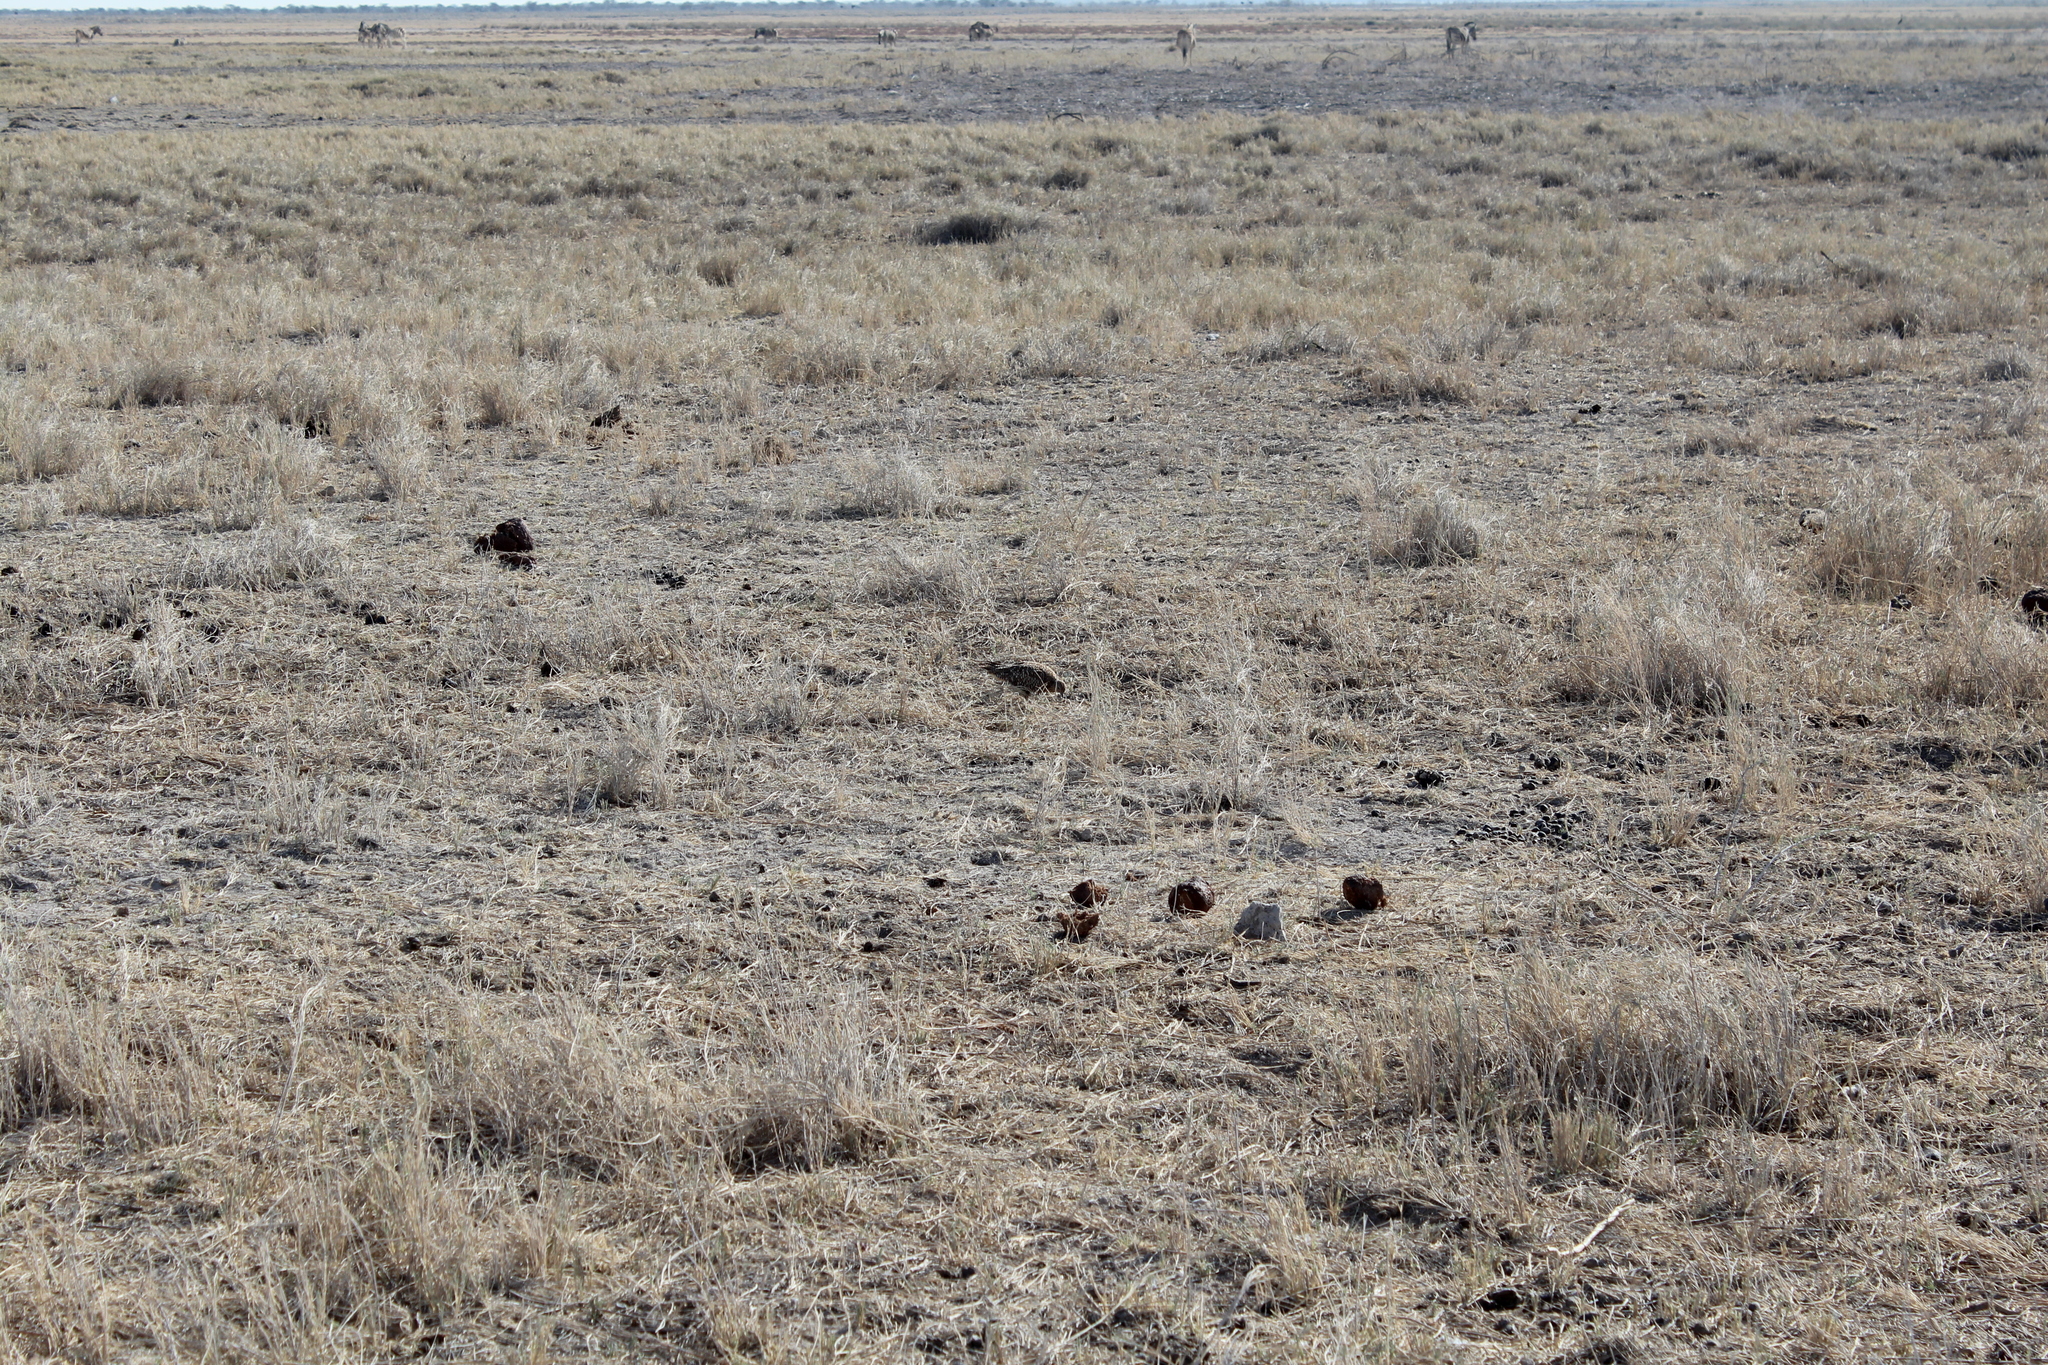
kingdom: Animalia
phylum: Chordata
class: Aves
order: Pteroclidiformes
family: Pteroclididae
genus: Pterocles
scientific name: Pterocles namaqua
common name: Namaqua sandgrouse
